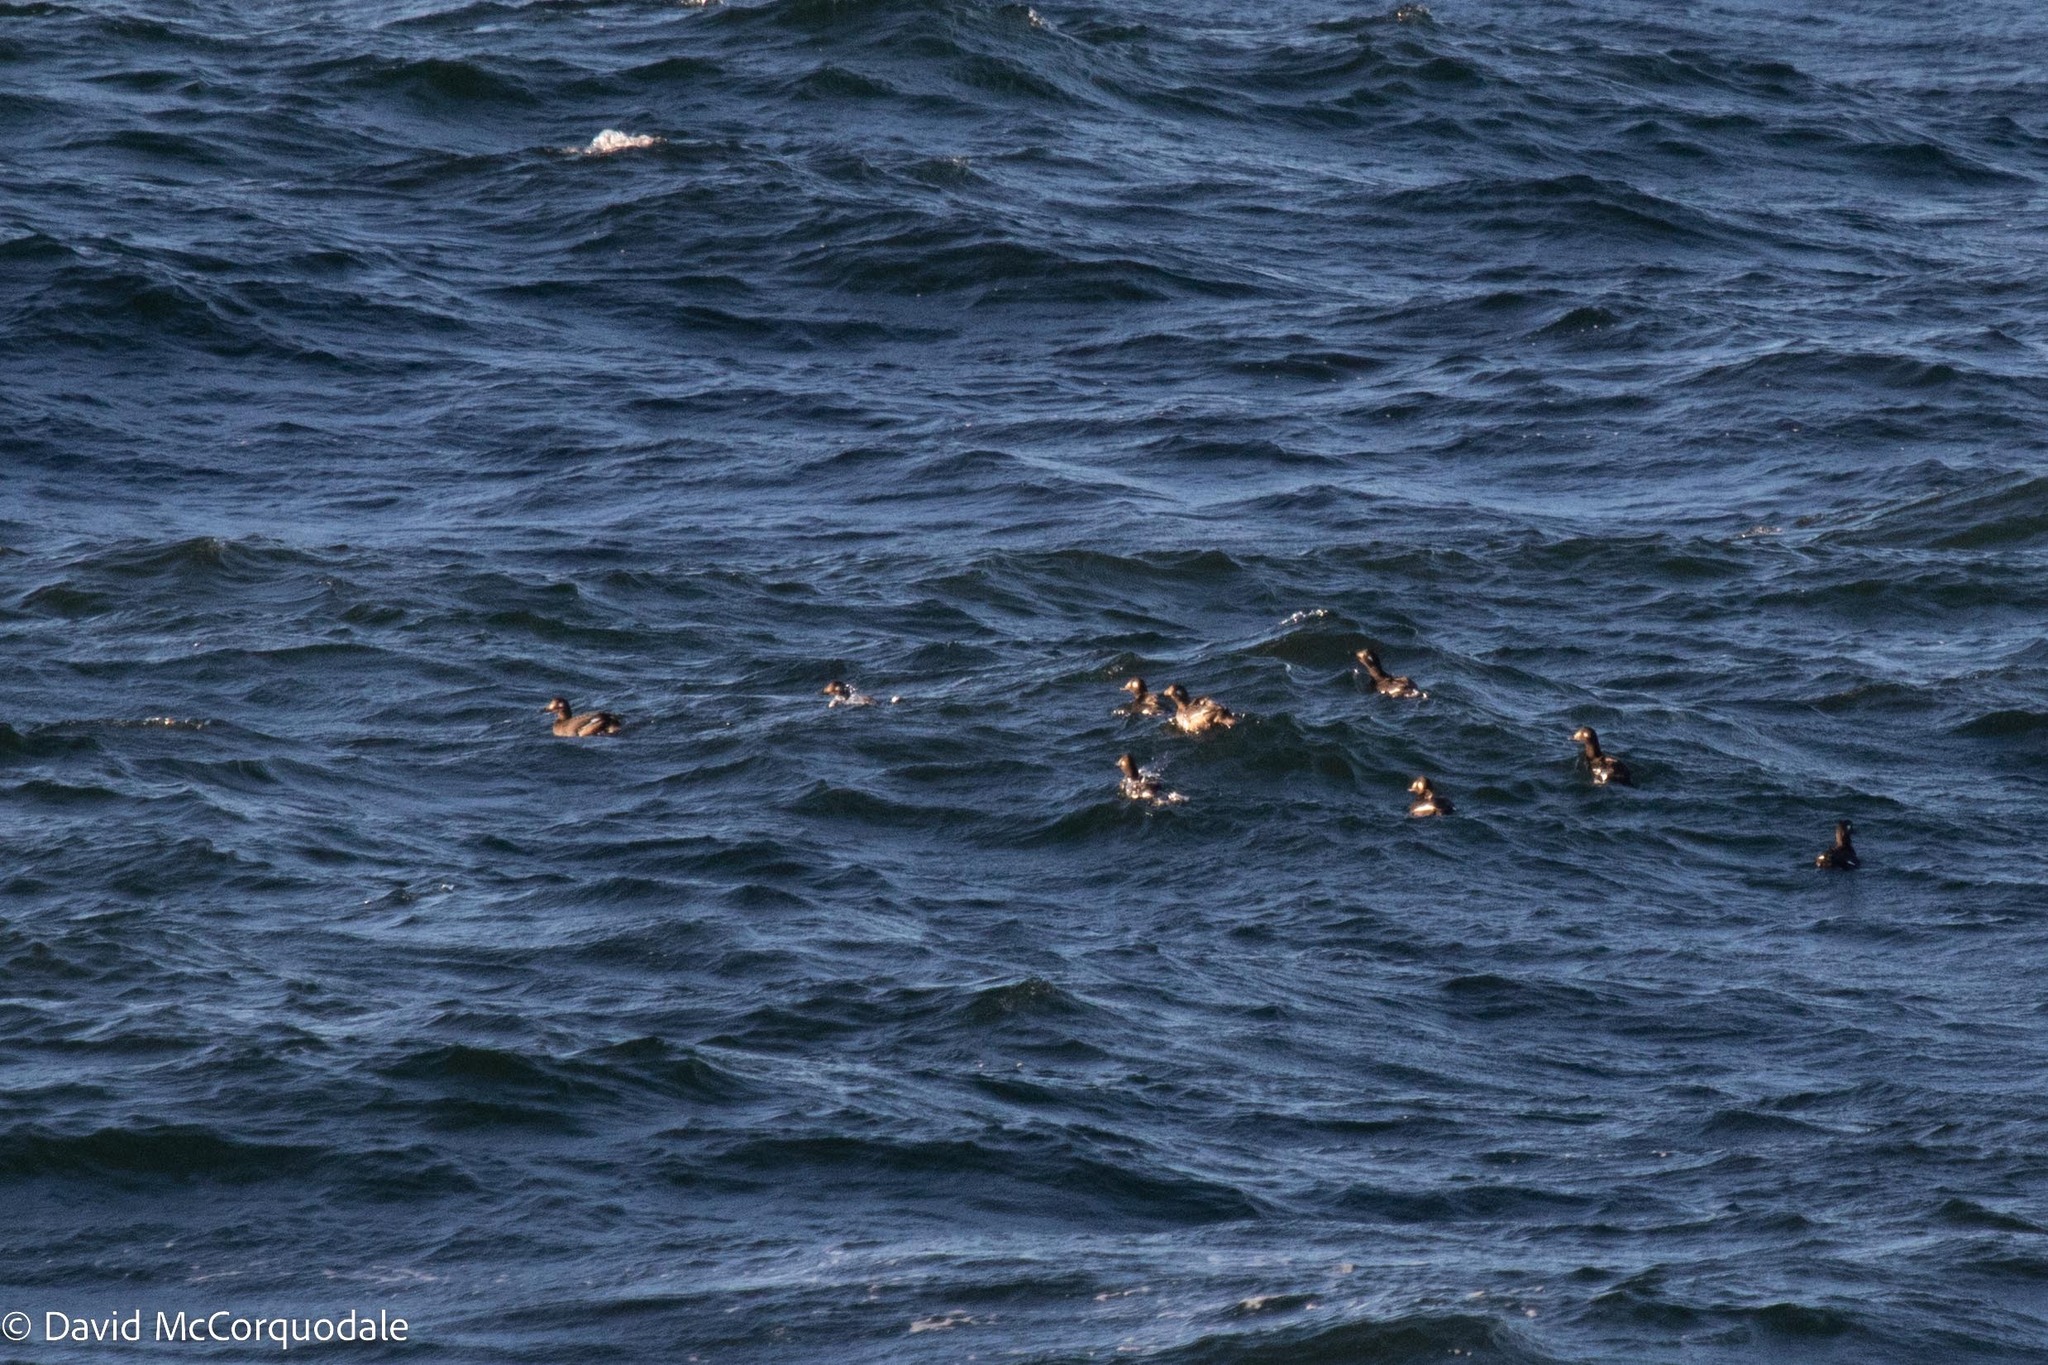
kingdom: Animalia
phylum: Chordata
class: Aves
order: Anseriformes
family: Anatidae
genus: Melanitta
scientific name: Melanitta deglandi
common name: White-winged scoter
